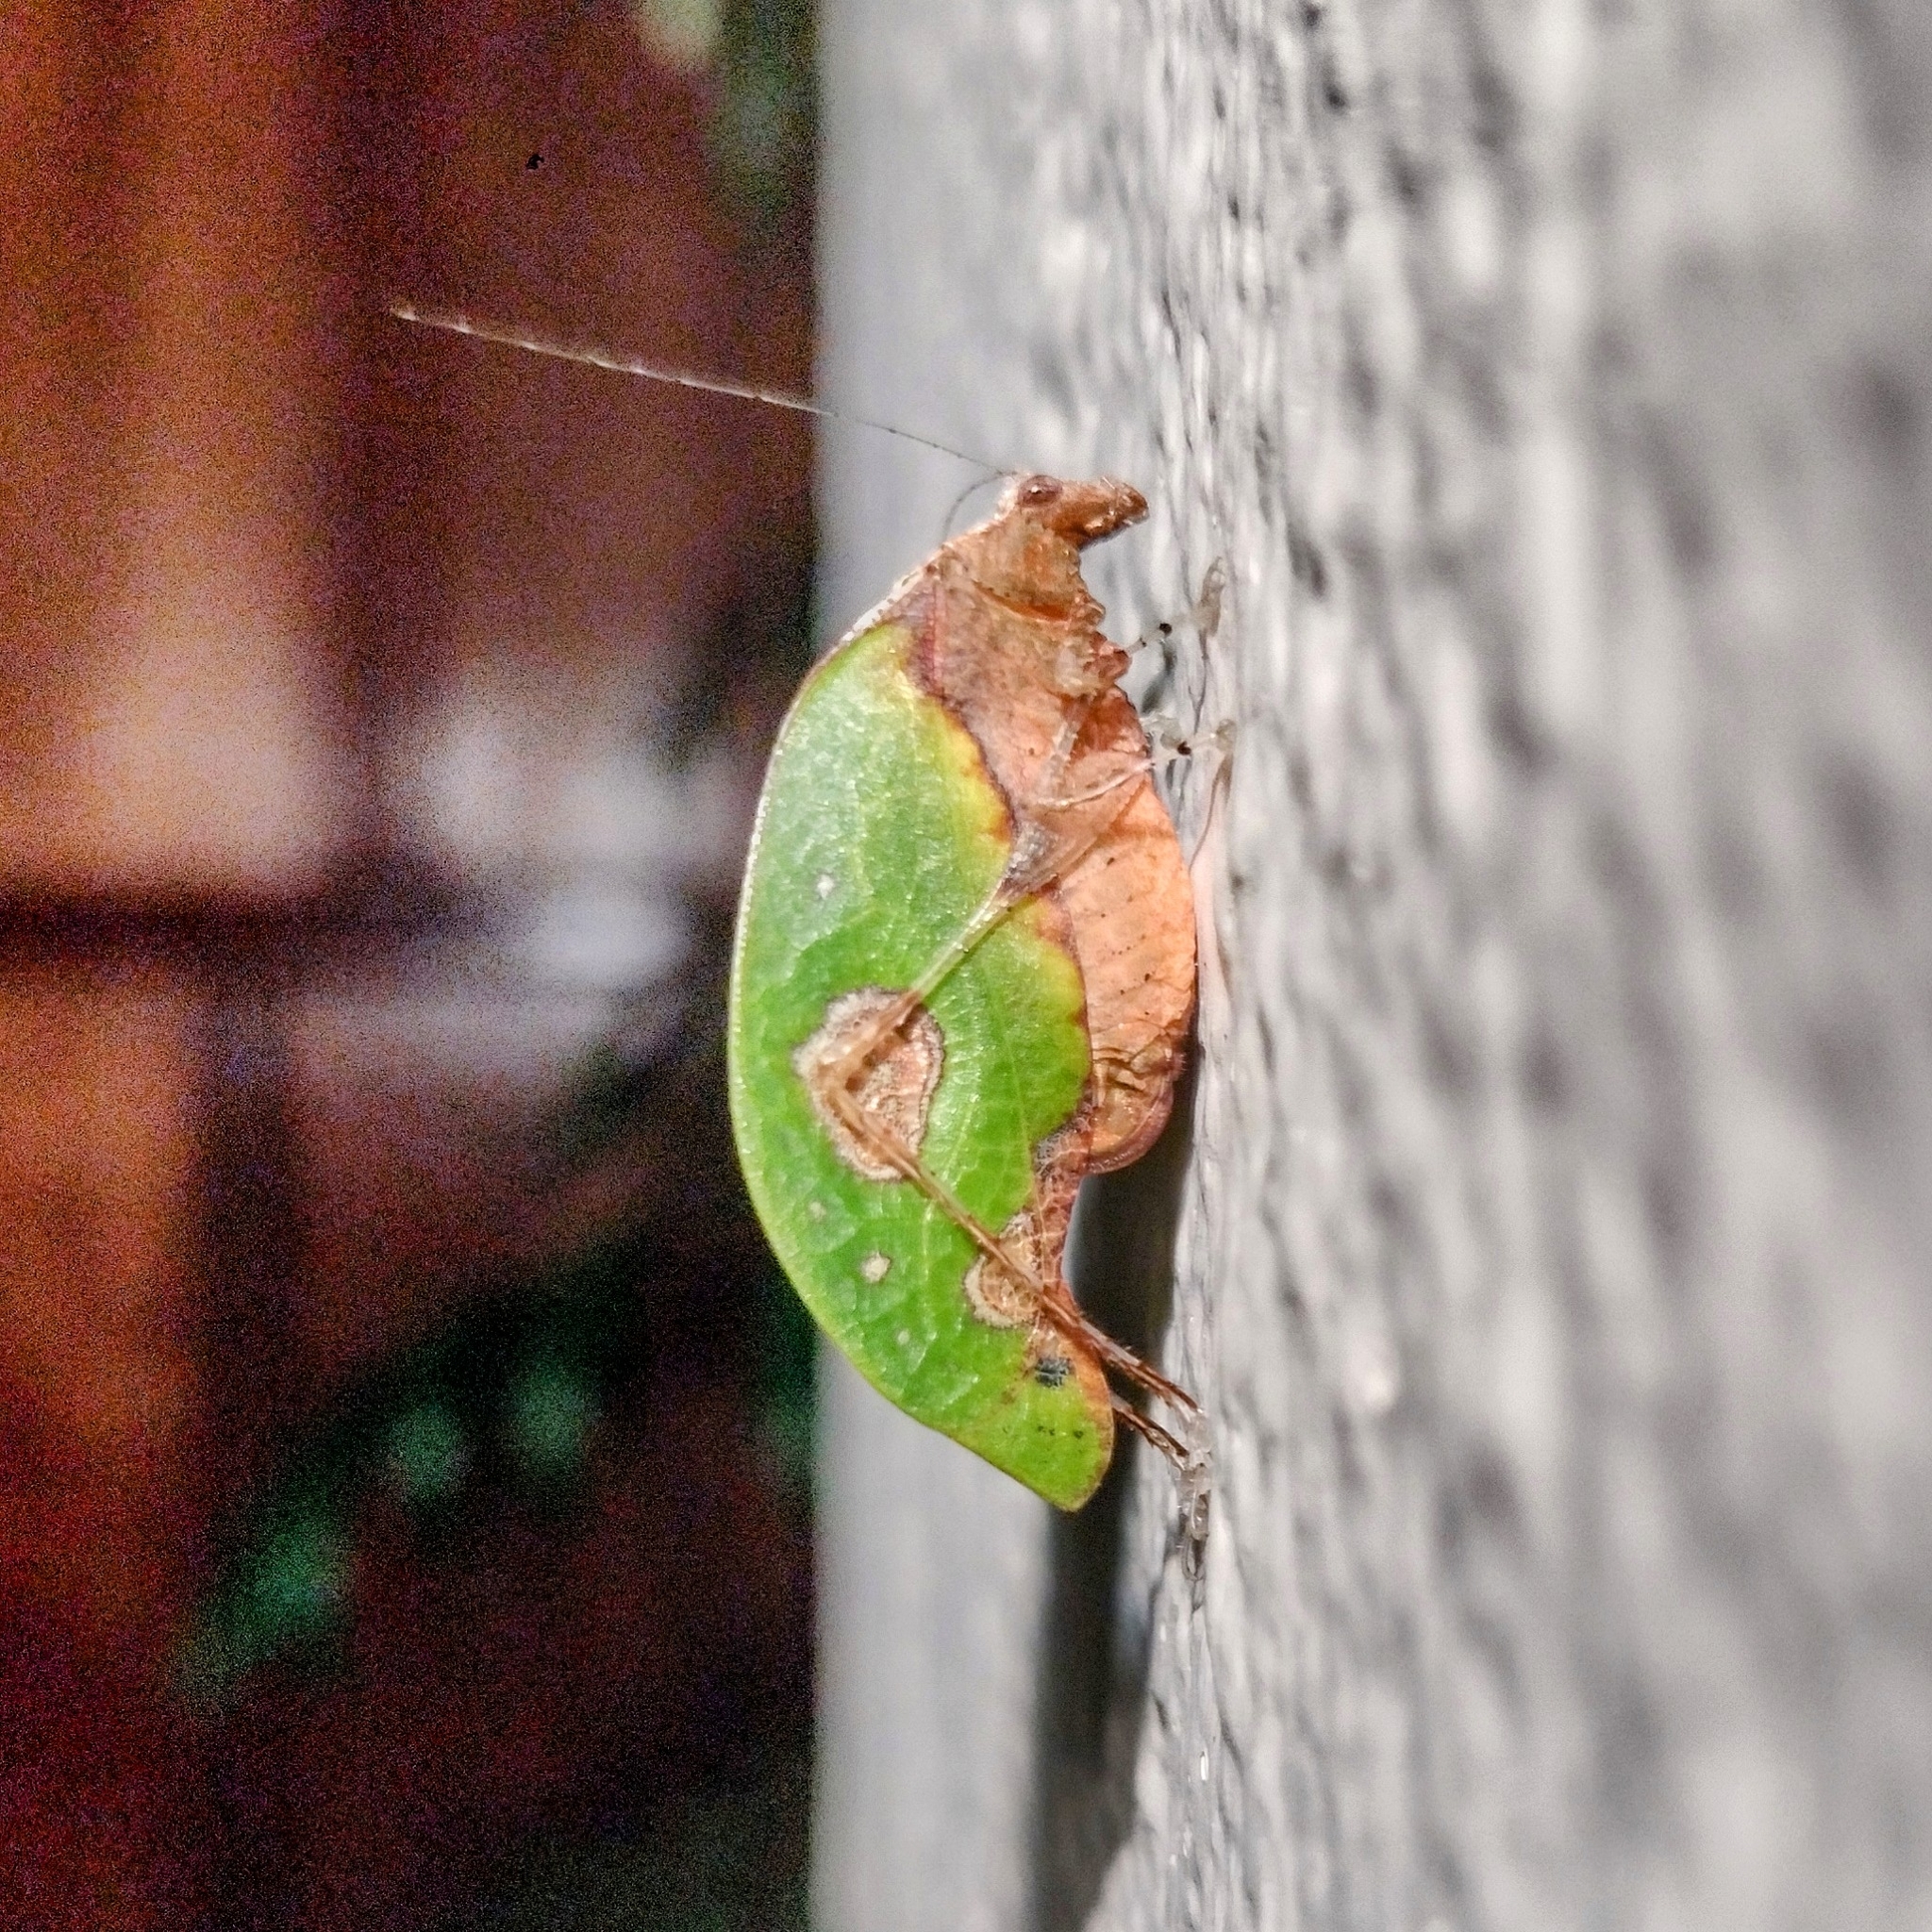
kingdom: Animalia
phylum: Arthropoda
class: Insecta
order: Orthoptera
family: Tettigoniidae
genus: Pycnopalpa
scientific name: Pycnopalpa bicordata
